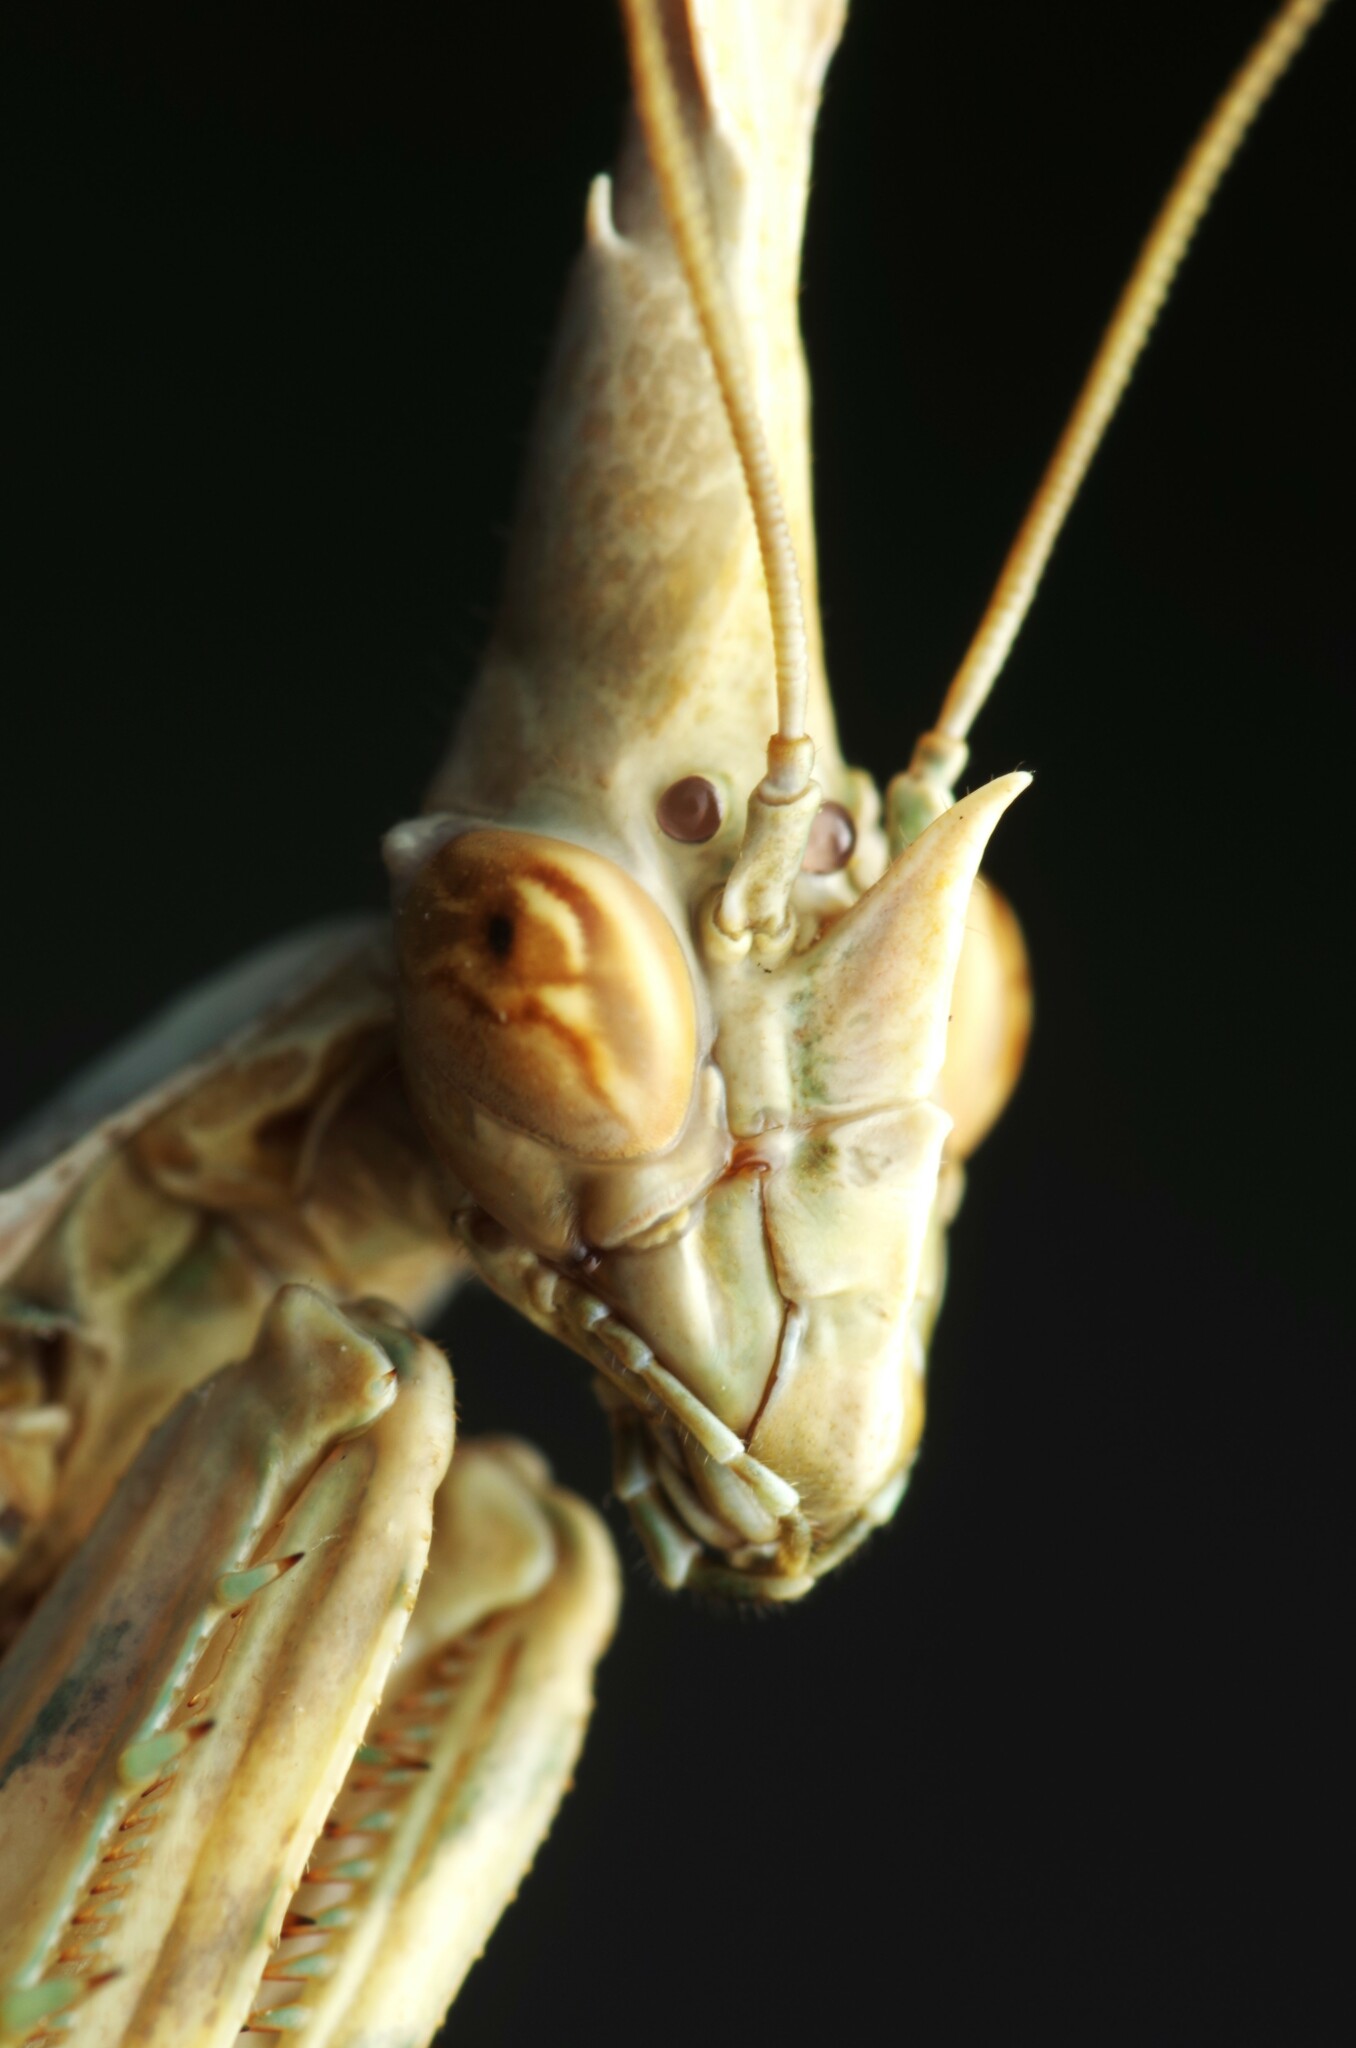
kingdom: Animalia
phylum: Arthropoda
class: Insecta
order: Mantodea
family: Empusidae
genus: Empusa
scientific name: Empusa pennata
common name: Conehead mantis
